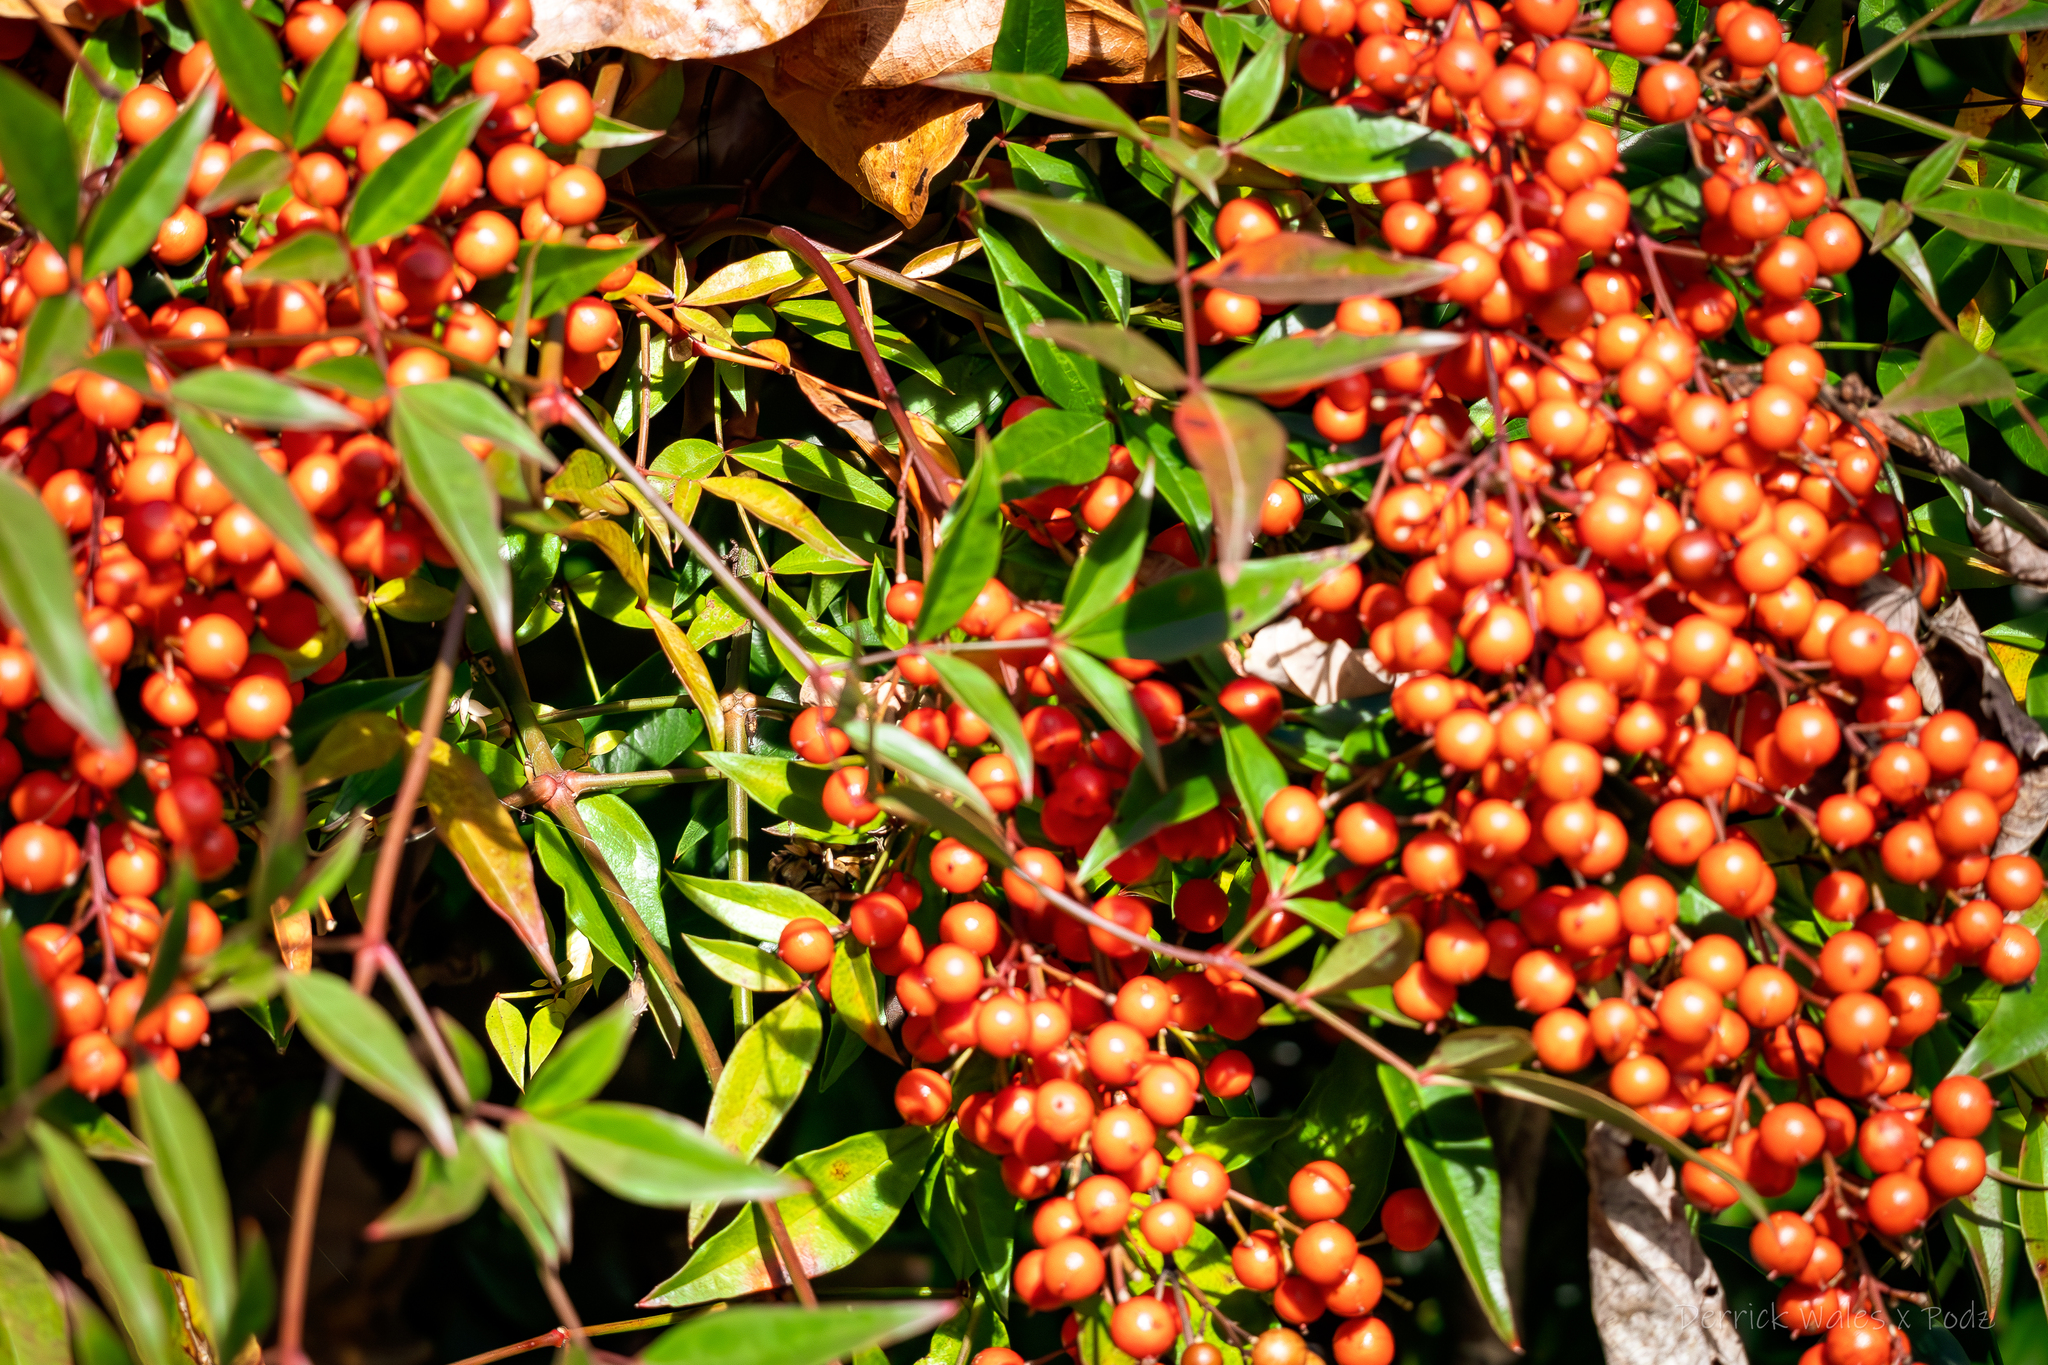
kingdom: Plantae
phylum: Tracheophyta
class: Magnoliopsida
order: Ranunculales
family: Berberidaceae
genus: Nandina
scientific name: Nandina domestica
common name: Sacred bamboo
